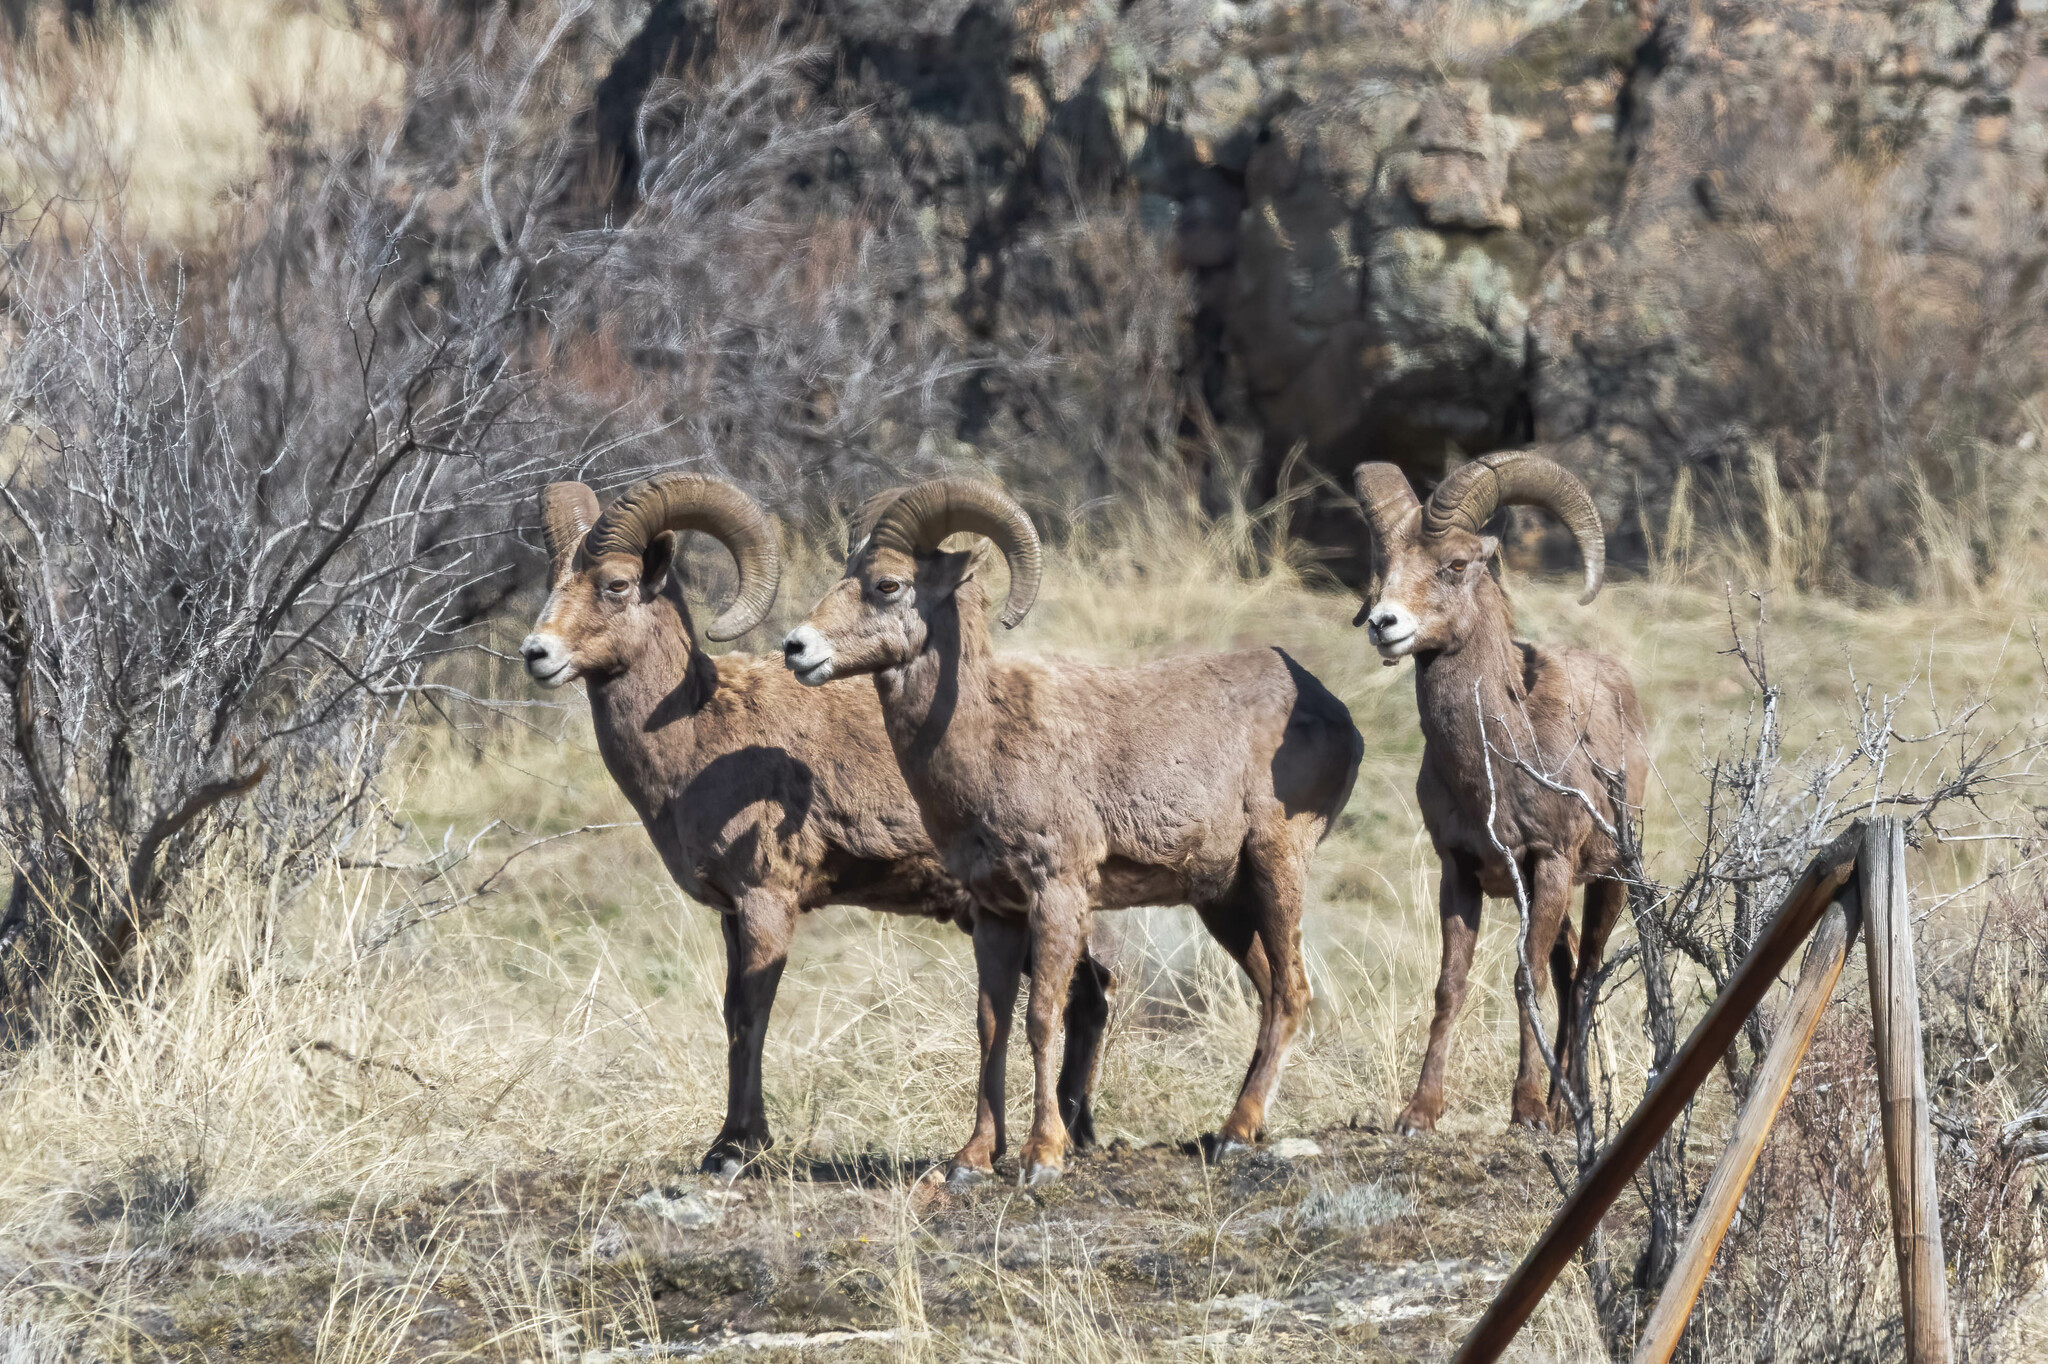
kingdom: Animalia
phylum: Chordata
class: Mammalia
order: Artiodactyla
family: Bovidae
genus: Ovis
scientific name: Ovis canadensis
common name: Bighorn sheep
